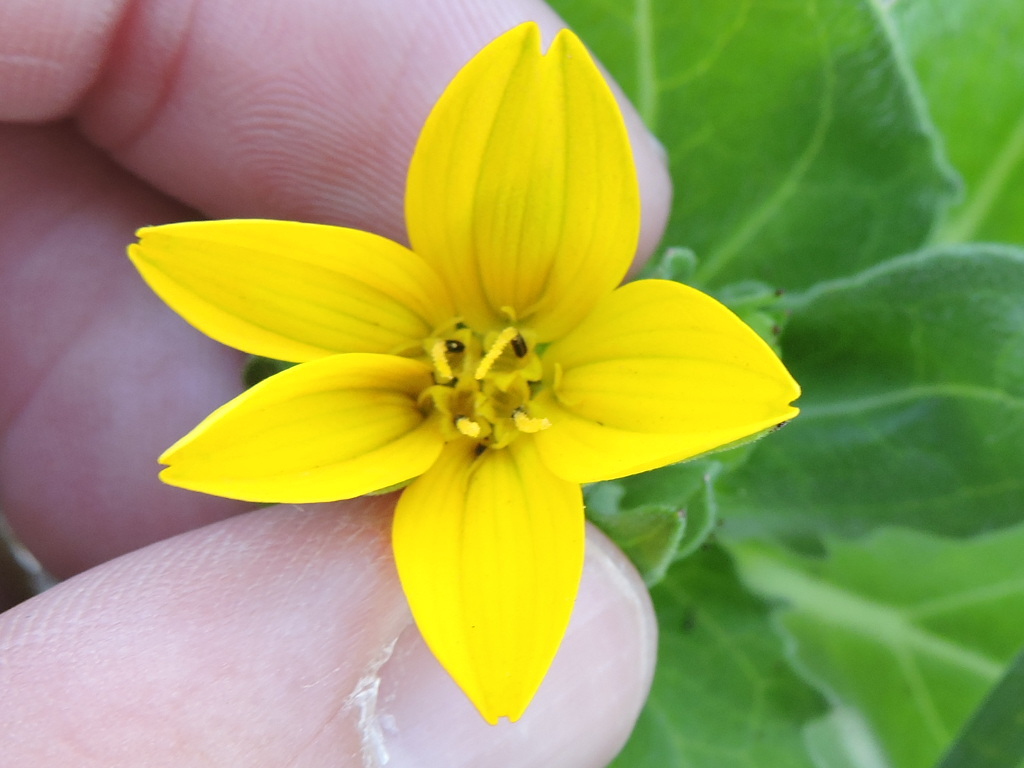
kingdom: Plantae
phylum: Tracheophyta
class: Magnoliopsida
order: Asterales
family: Asteraceae
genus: Lindheimera
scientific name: Lindheimera texana
